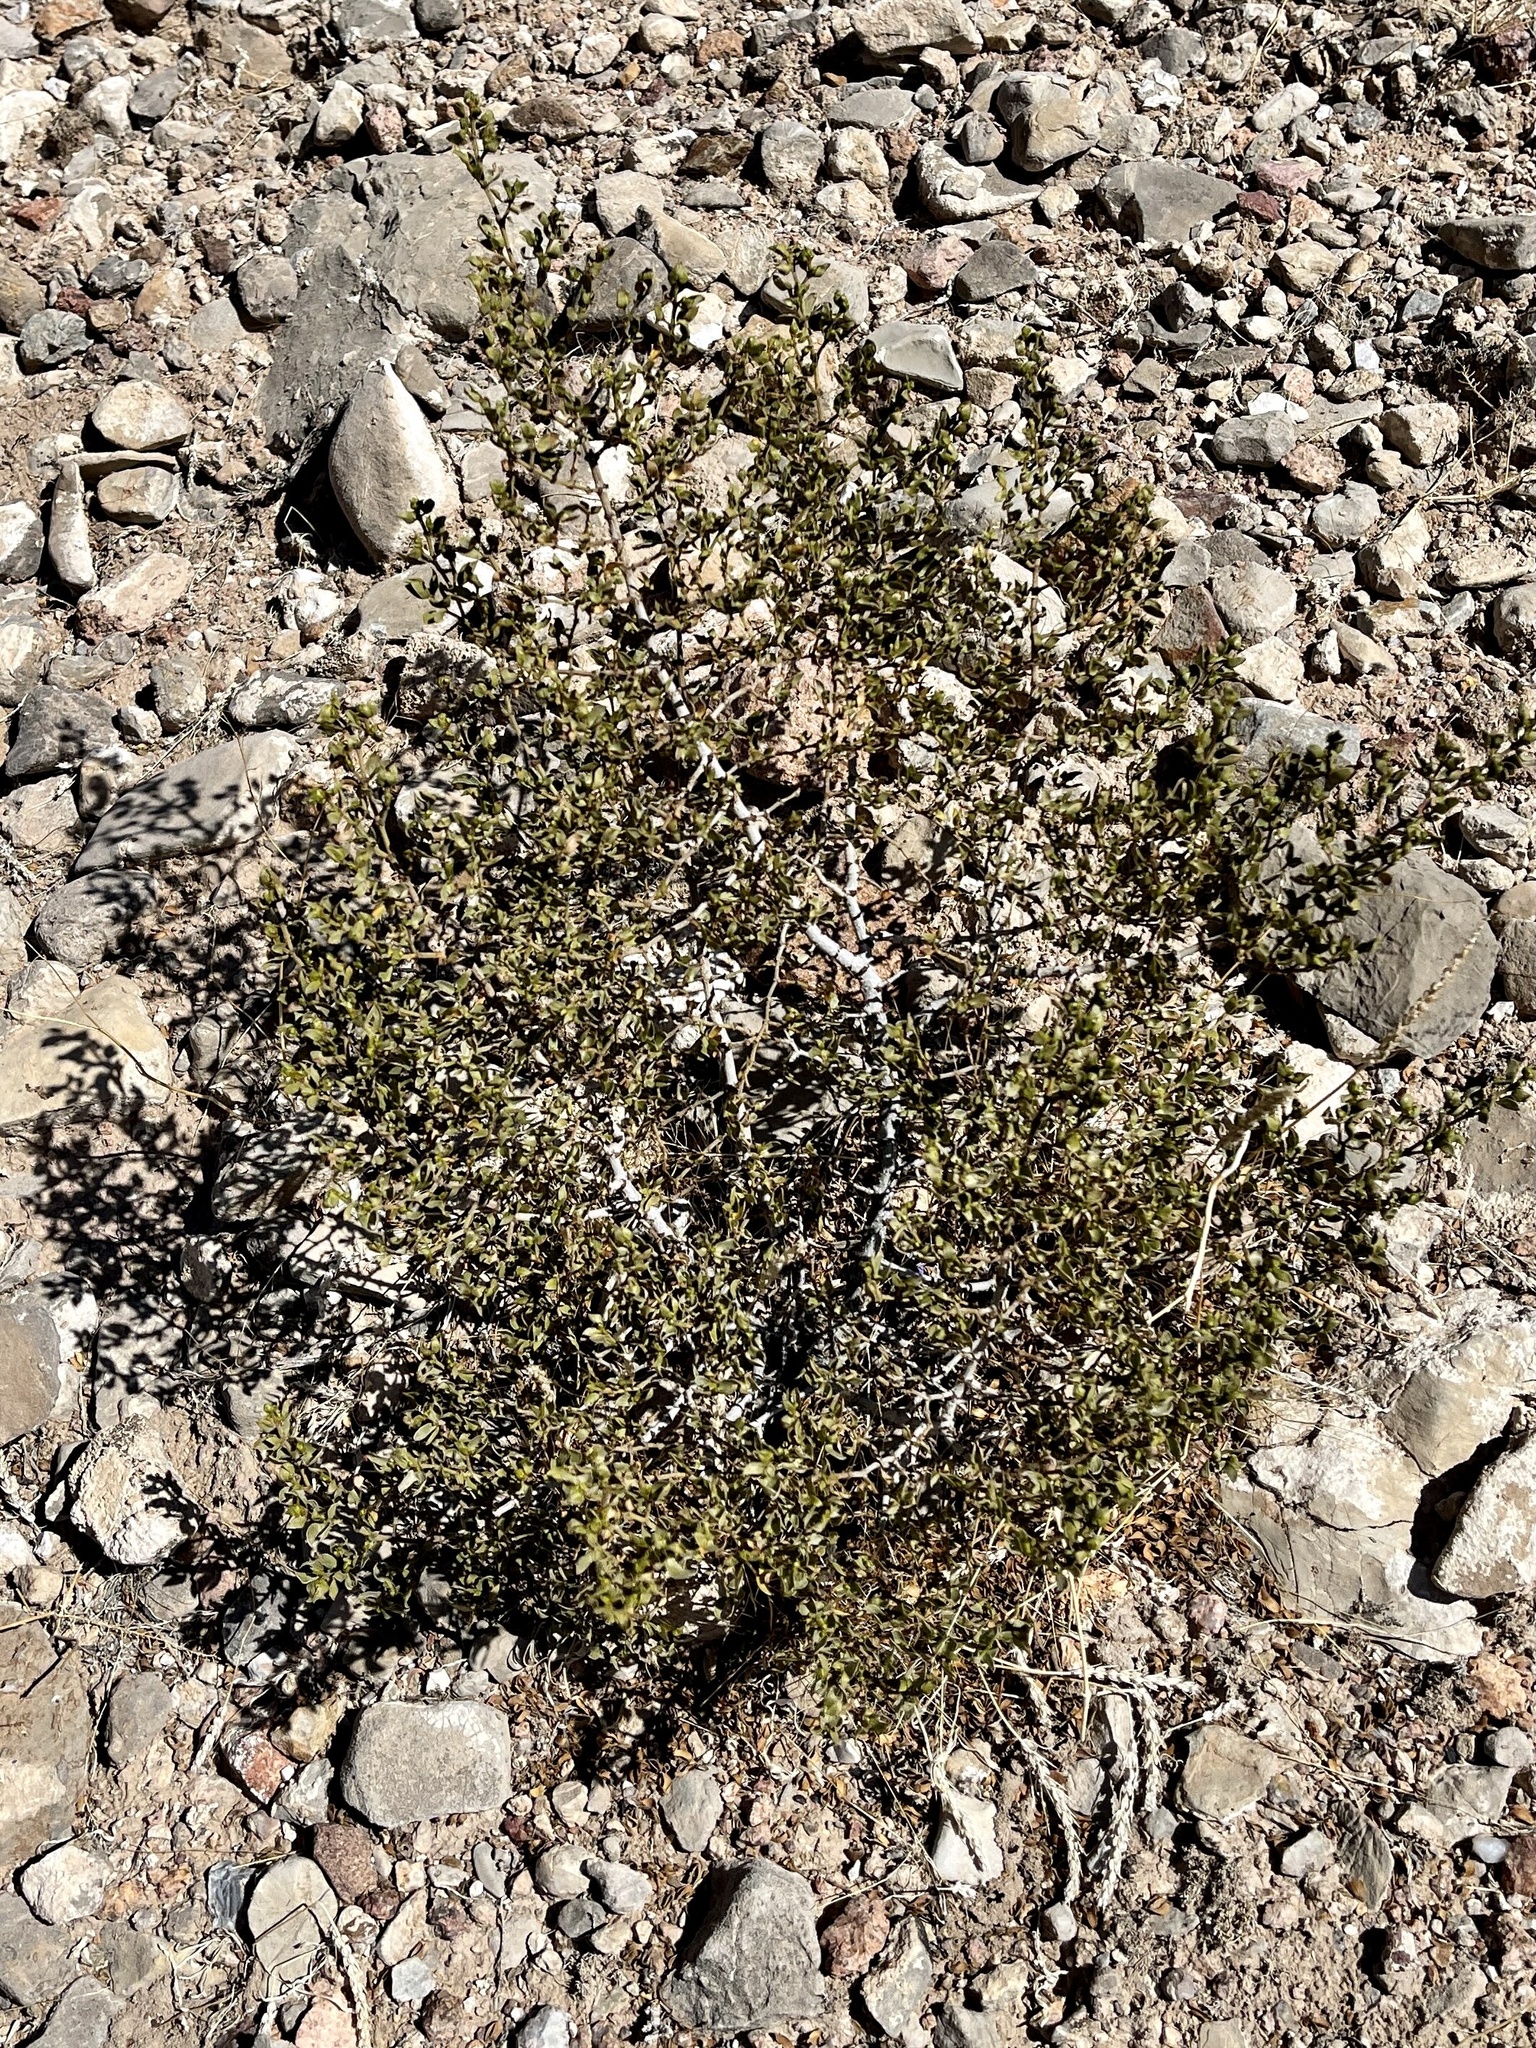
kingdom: Plantae
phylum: Tracheophyta
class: Magnoliopsida
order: Zygophyllales
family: Zygophyllaceae
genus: Larrea
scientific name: Larrea tridentata
